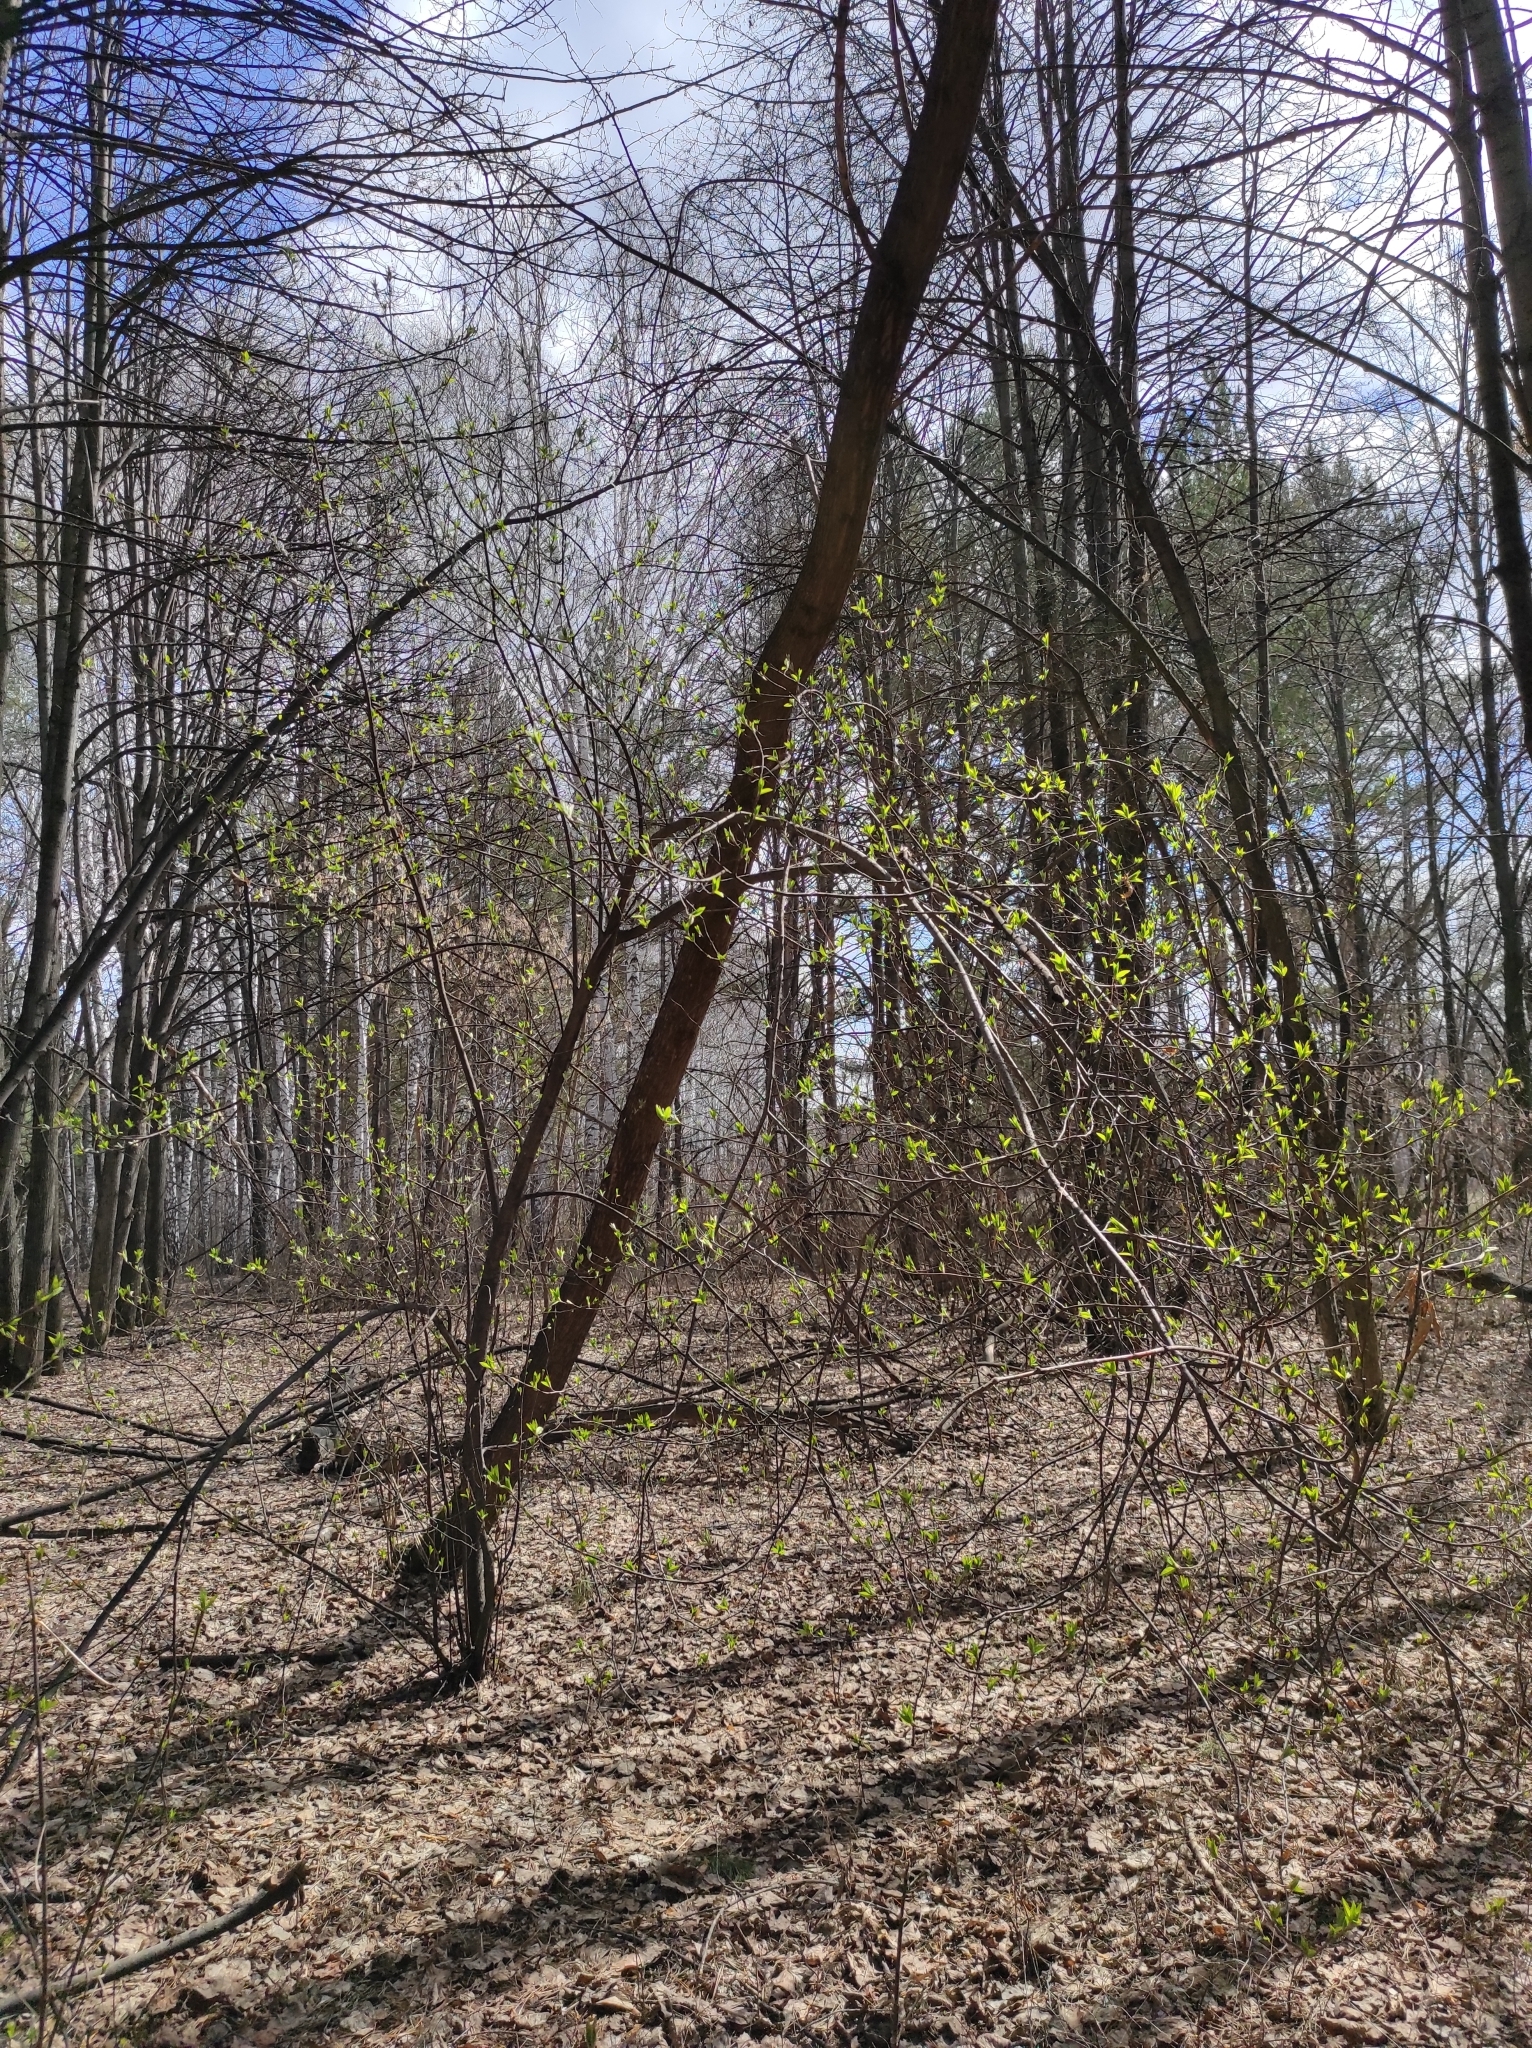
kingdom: Plantae
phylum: Tracheophyta
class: Magnoliopsida
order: Rosales
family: Rosaceae
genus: Prunus
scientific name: Prunus padus
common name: Bird cherry
